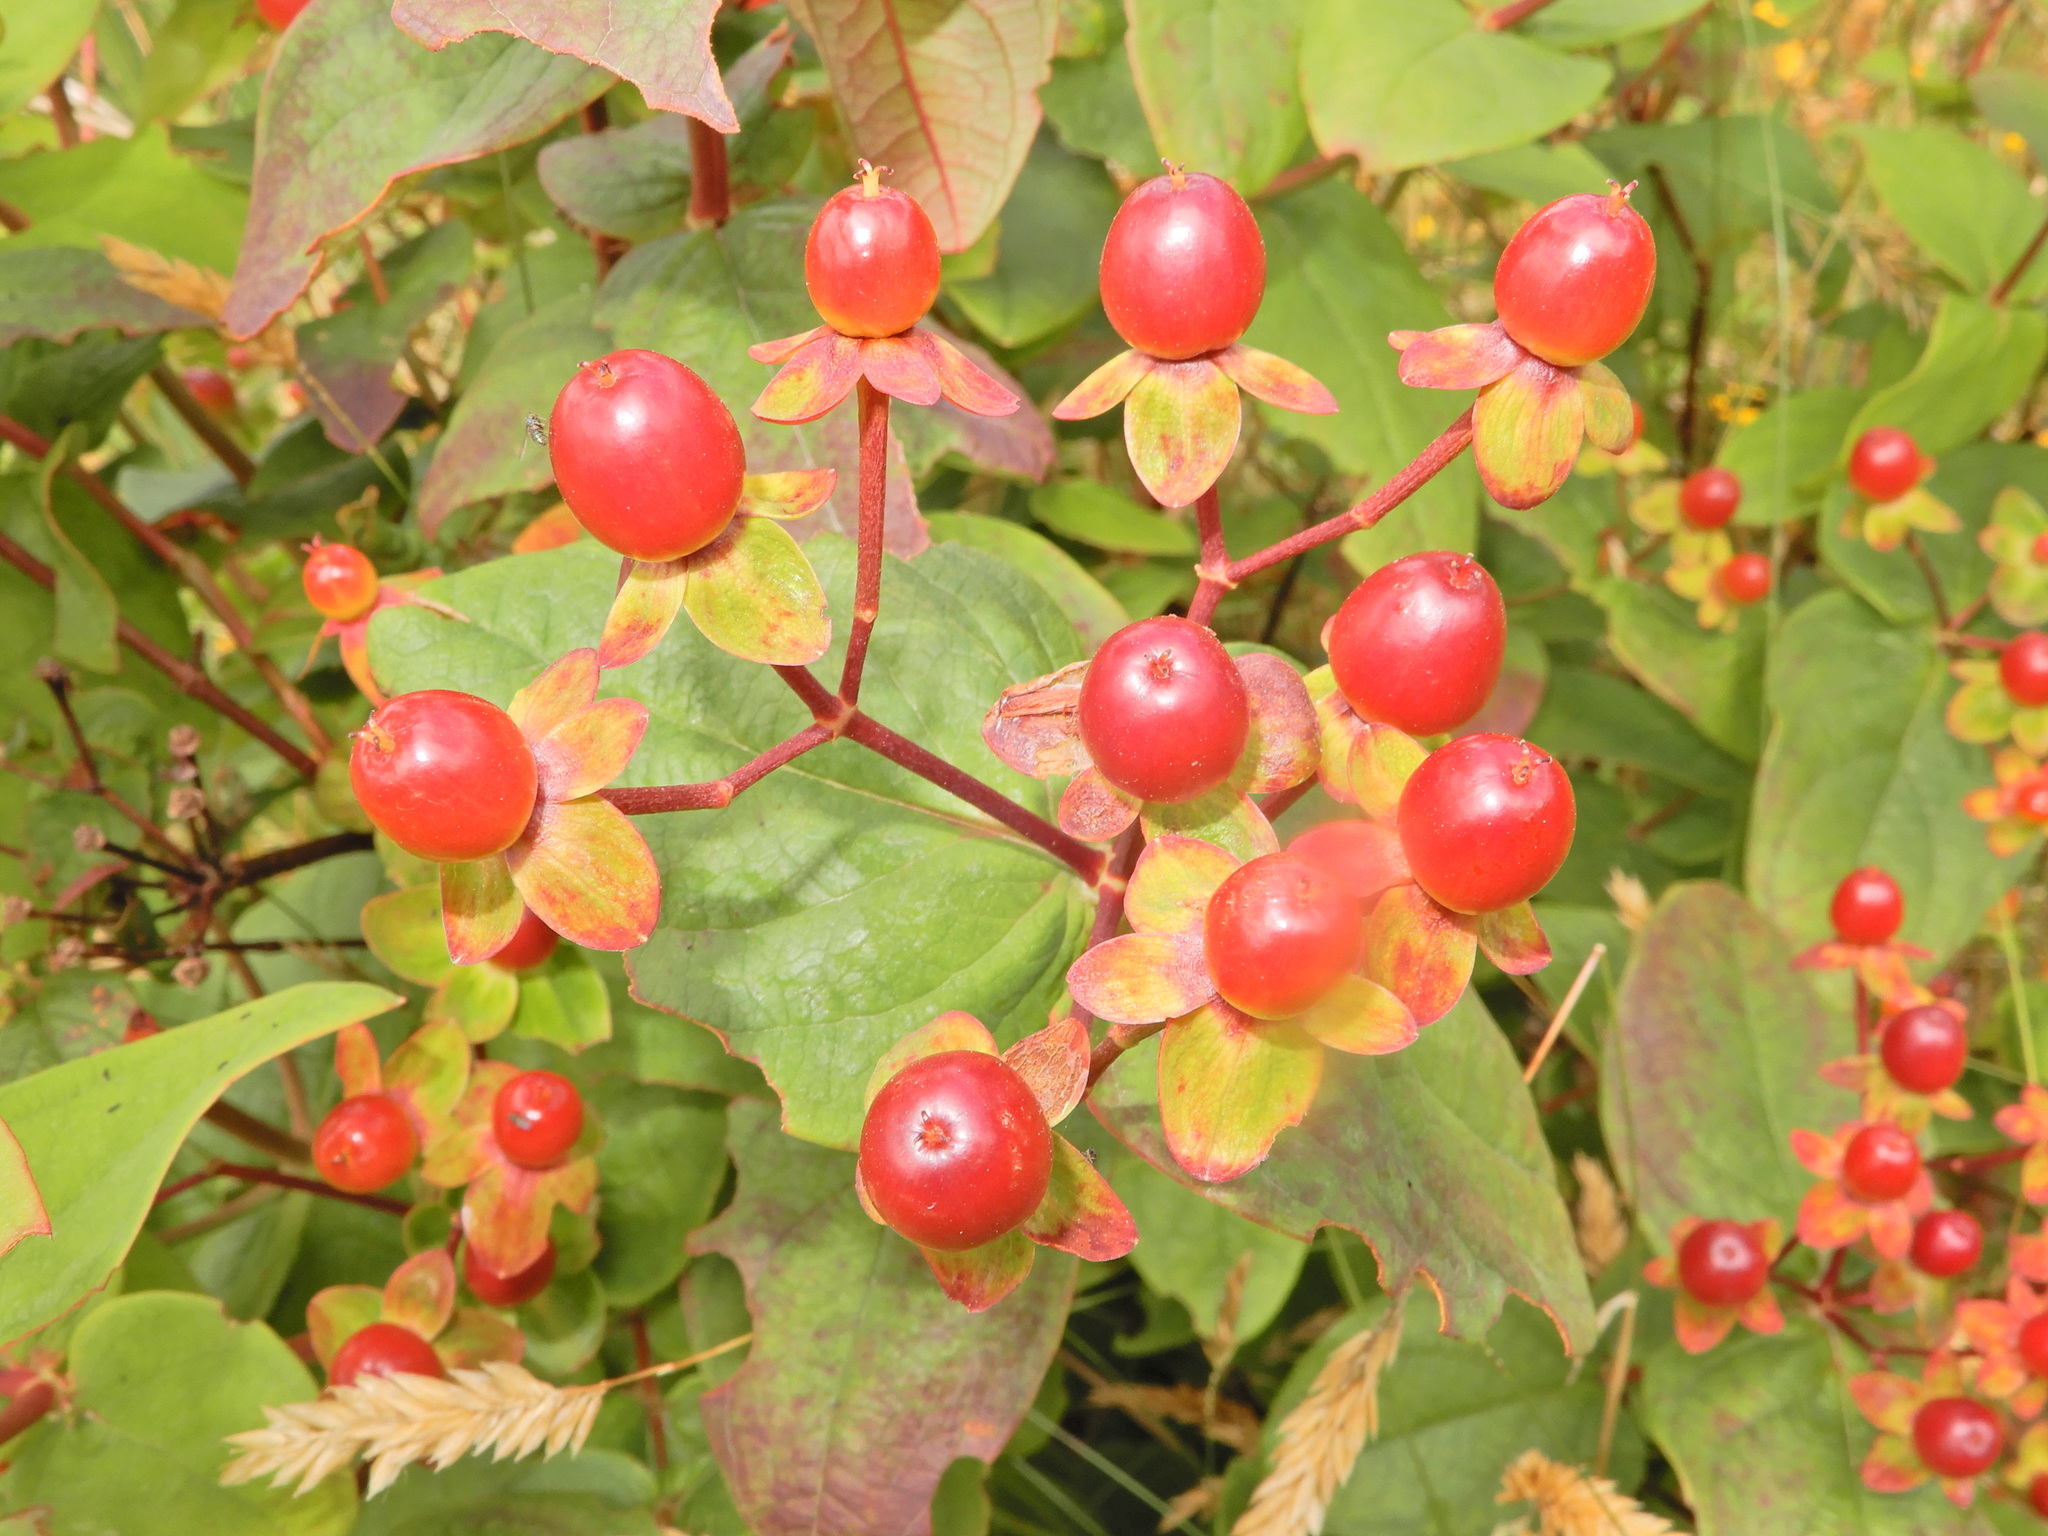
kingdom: Plantae
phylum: Tracheophyta
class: Magnoliopsida
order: Malpighiales
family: Hypericaceae
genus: Hypericum
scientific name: Hypericum androsaemum
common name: Sweet-amber
